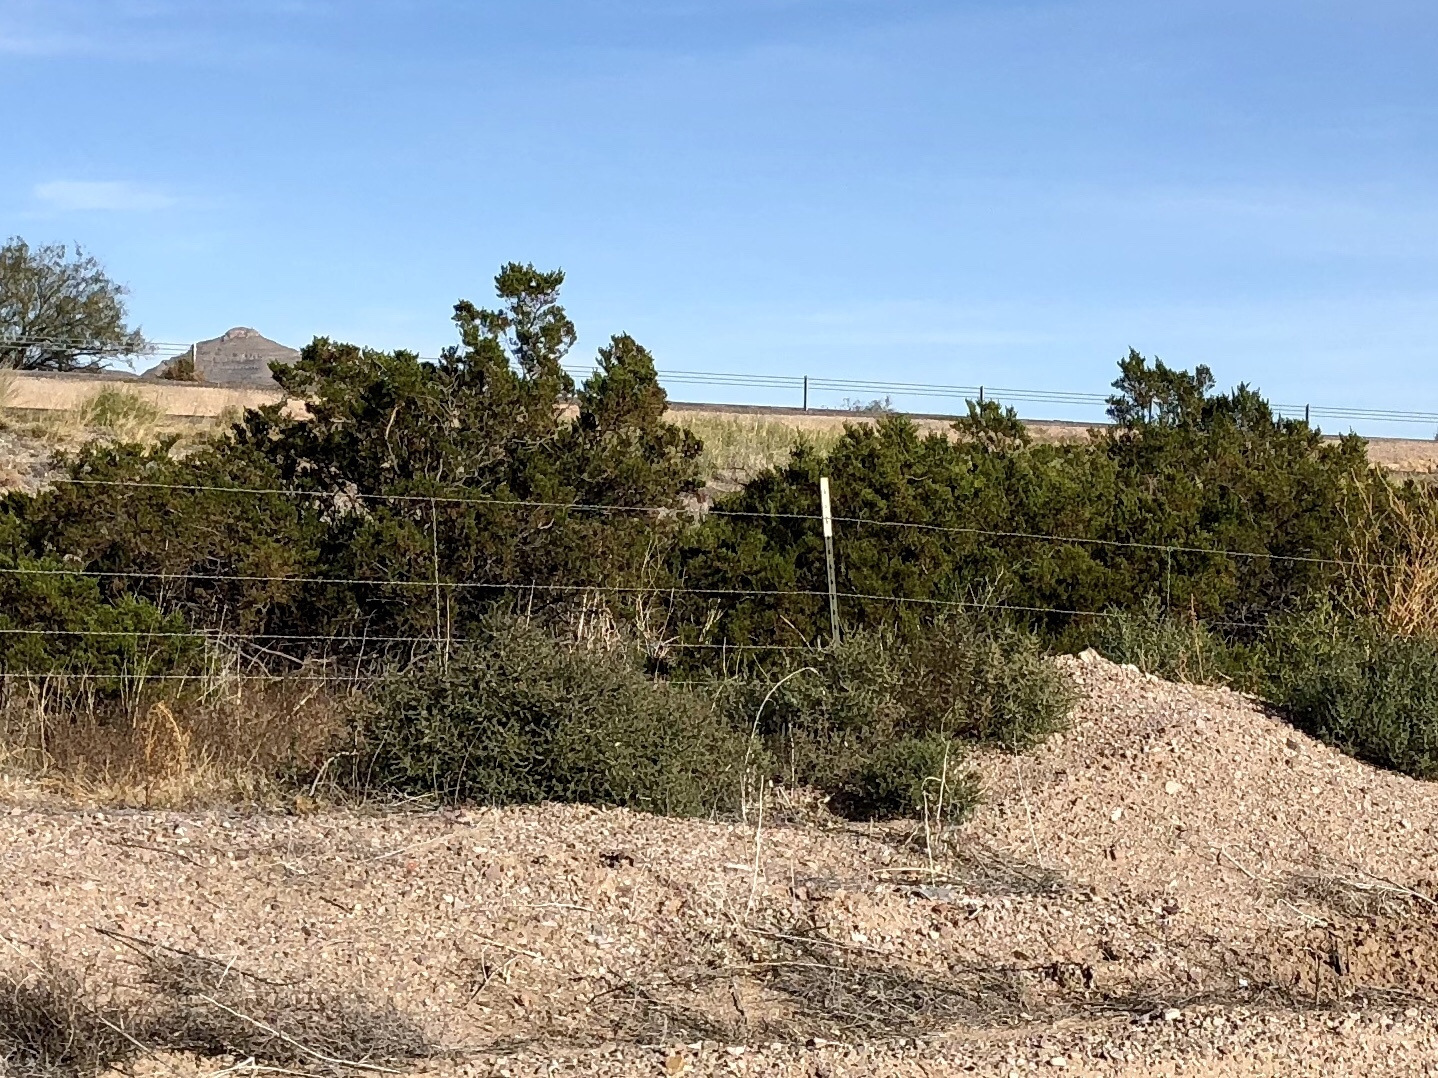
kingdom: Plantae
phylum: Tracheophyta
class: Magnoliopsida
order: Zygophyllales
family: Zygophyllaceae
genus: Larrea
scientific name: Larrea tridentata
